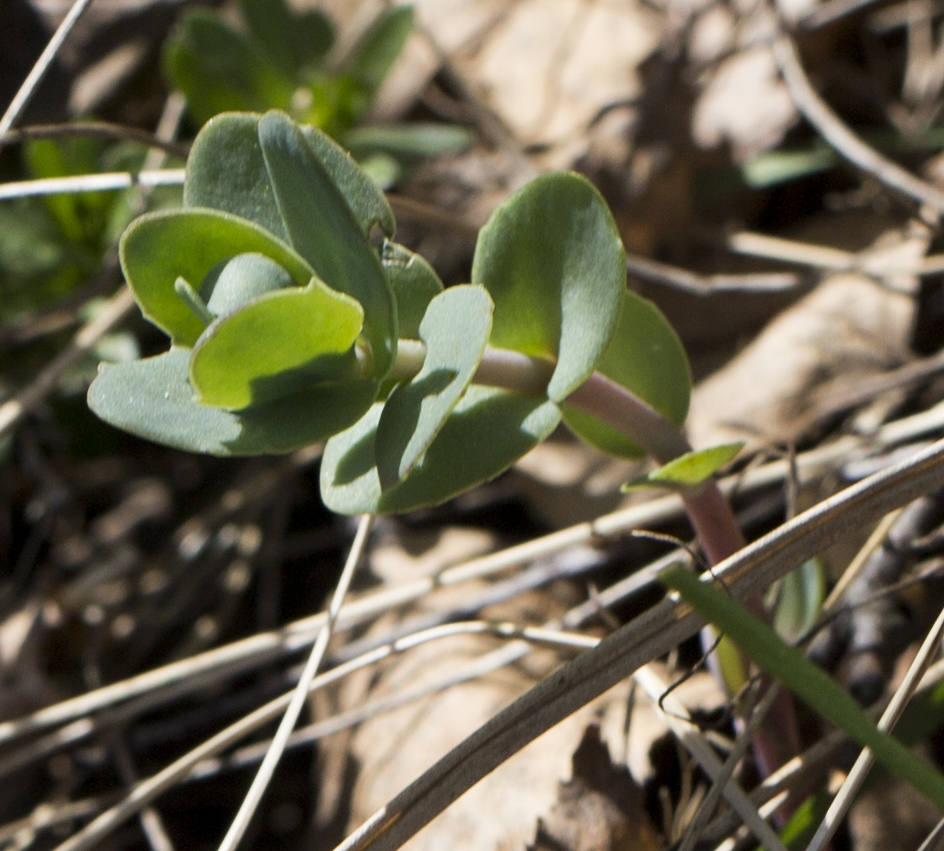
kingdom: Plantae
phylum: Tracheophyta
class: Magnoliopsida
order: Saxifragales
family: Crassulaceae
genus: Hylotelephium
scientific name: Hylotelephium maximum
